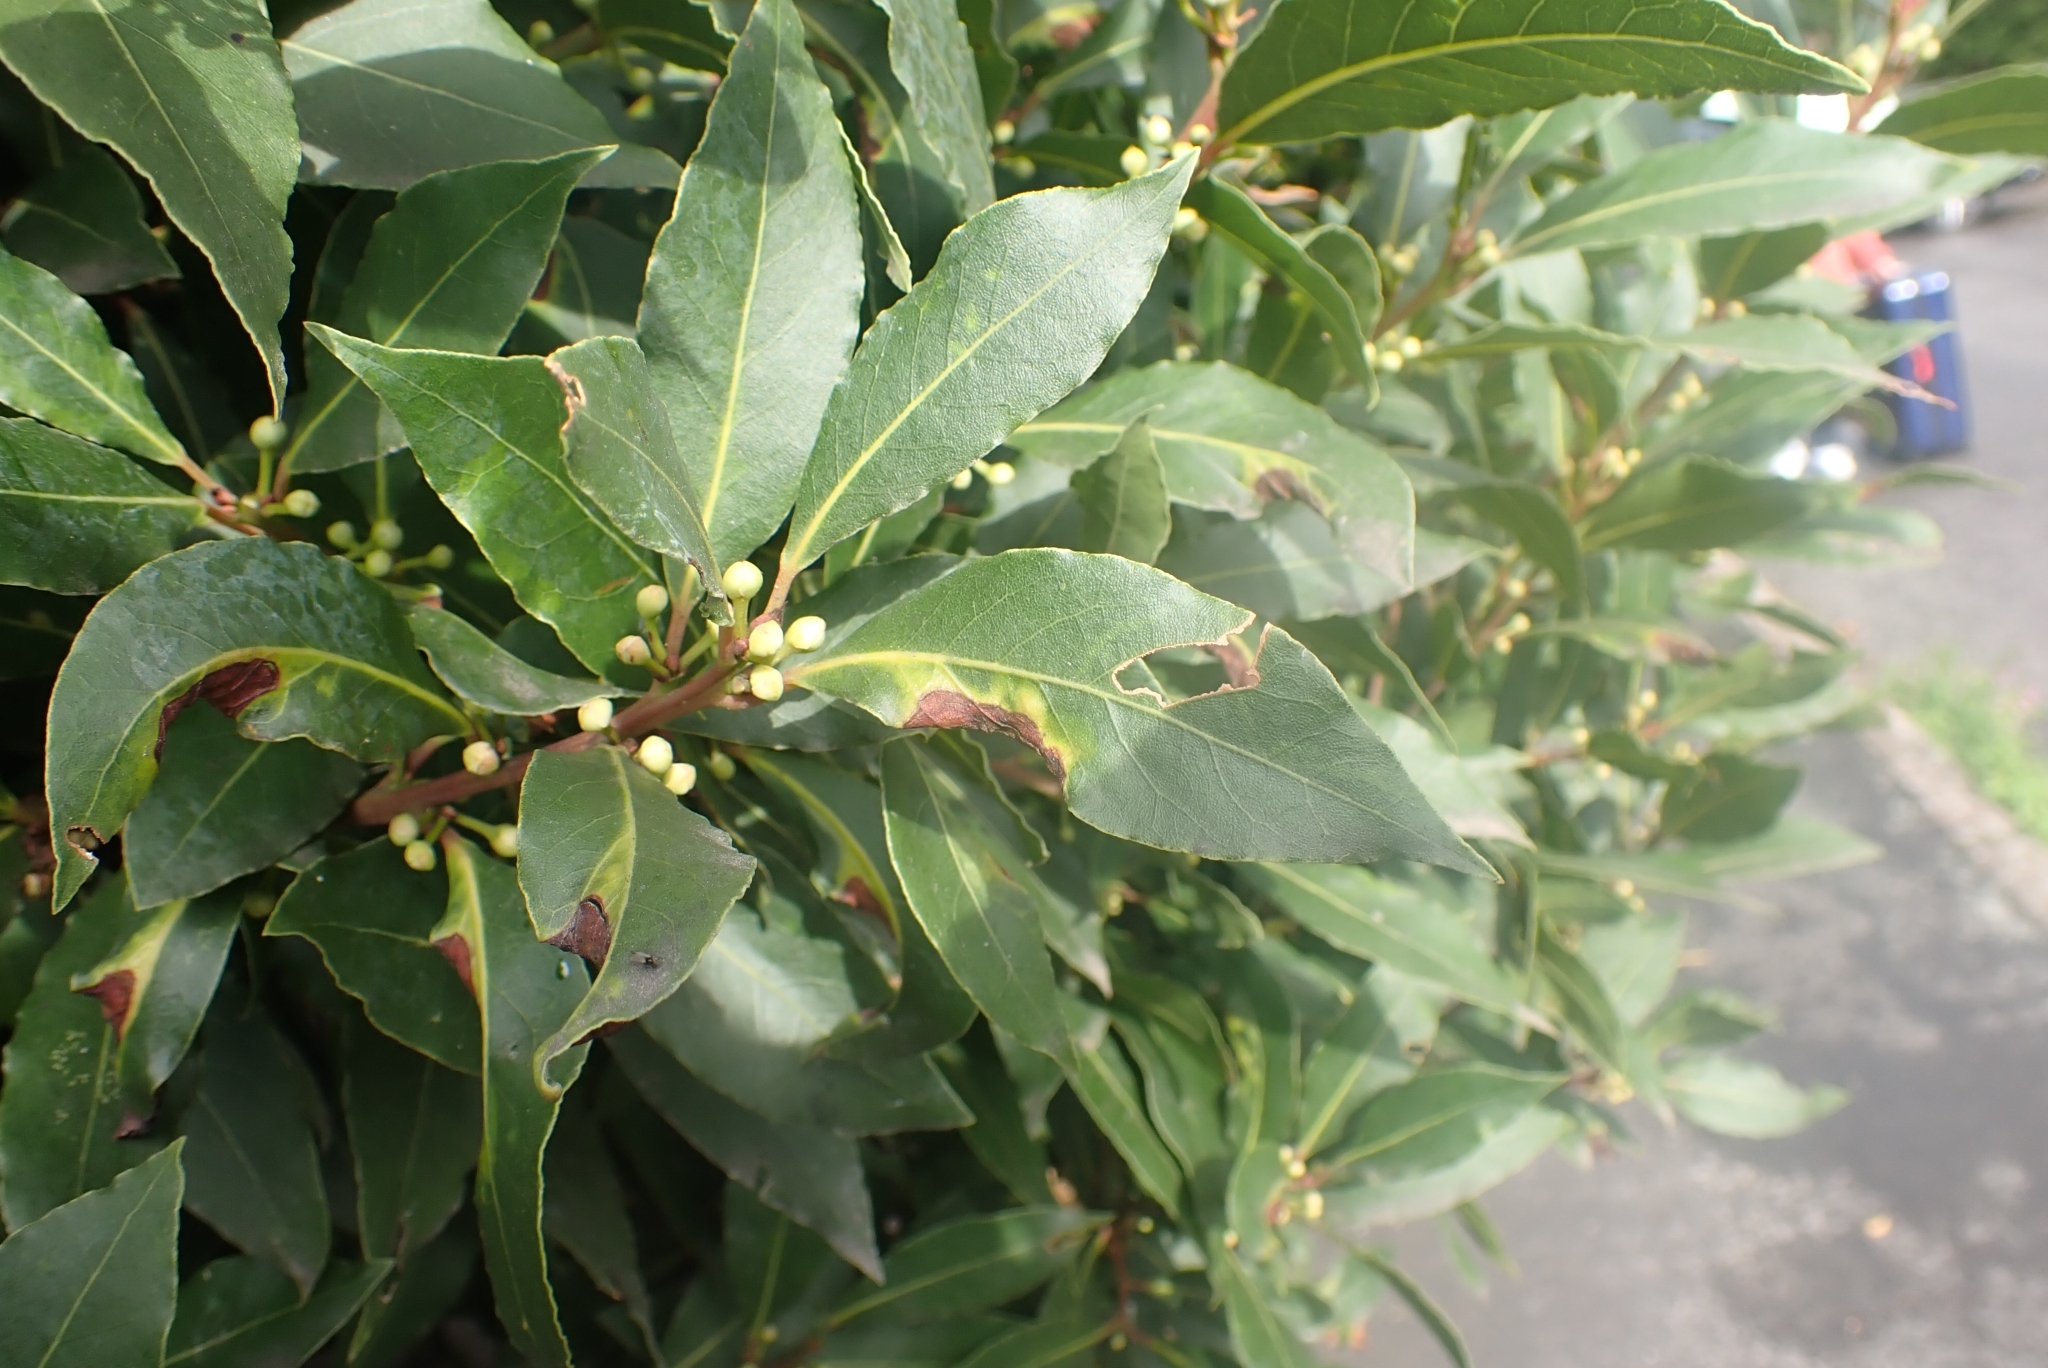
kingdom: Animalia
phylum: Arthropoda
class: Insecta
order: Hemiptera
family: Triozidae
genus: Lauritrioza
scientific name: Lauritrioza alacris
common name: Laurel psyllid
